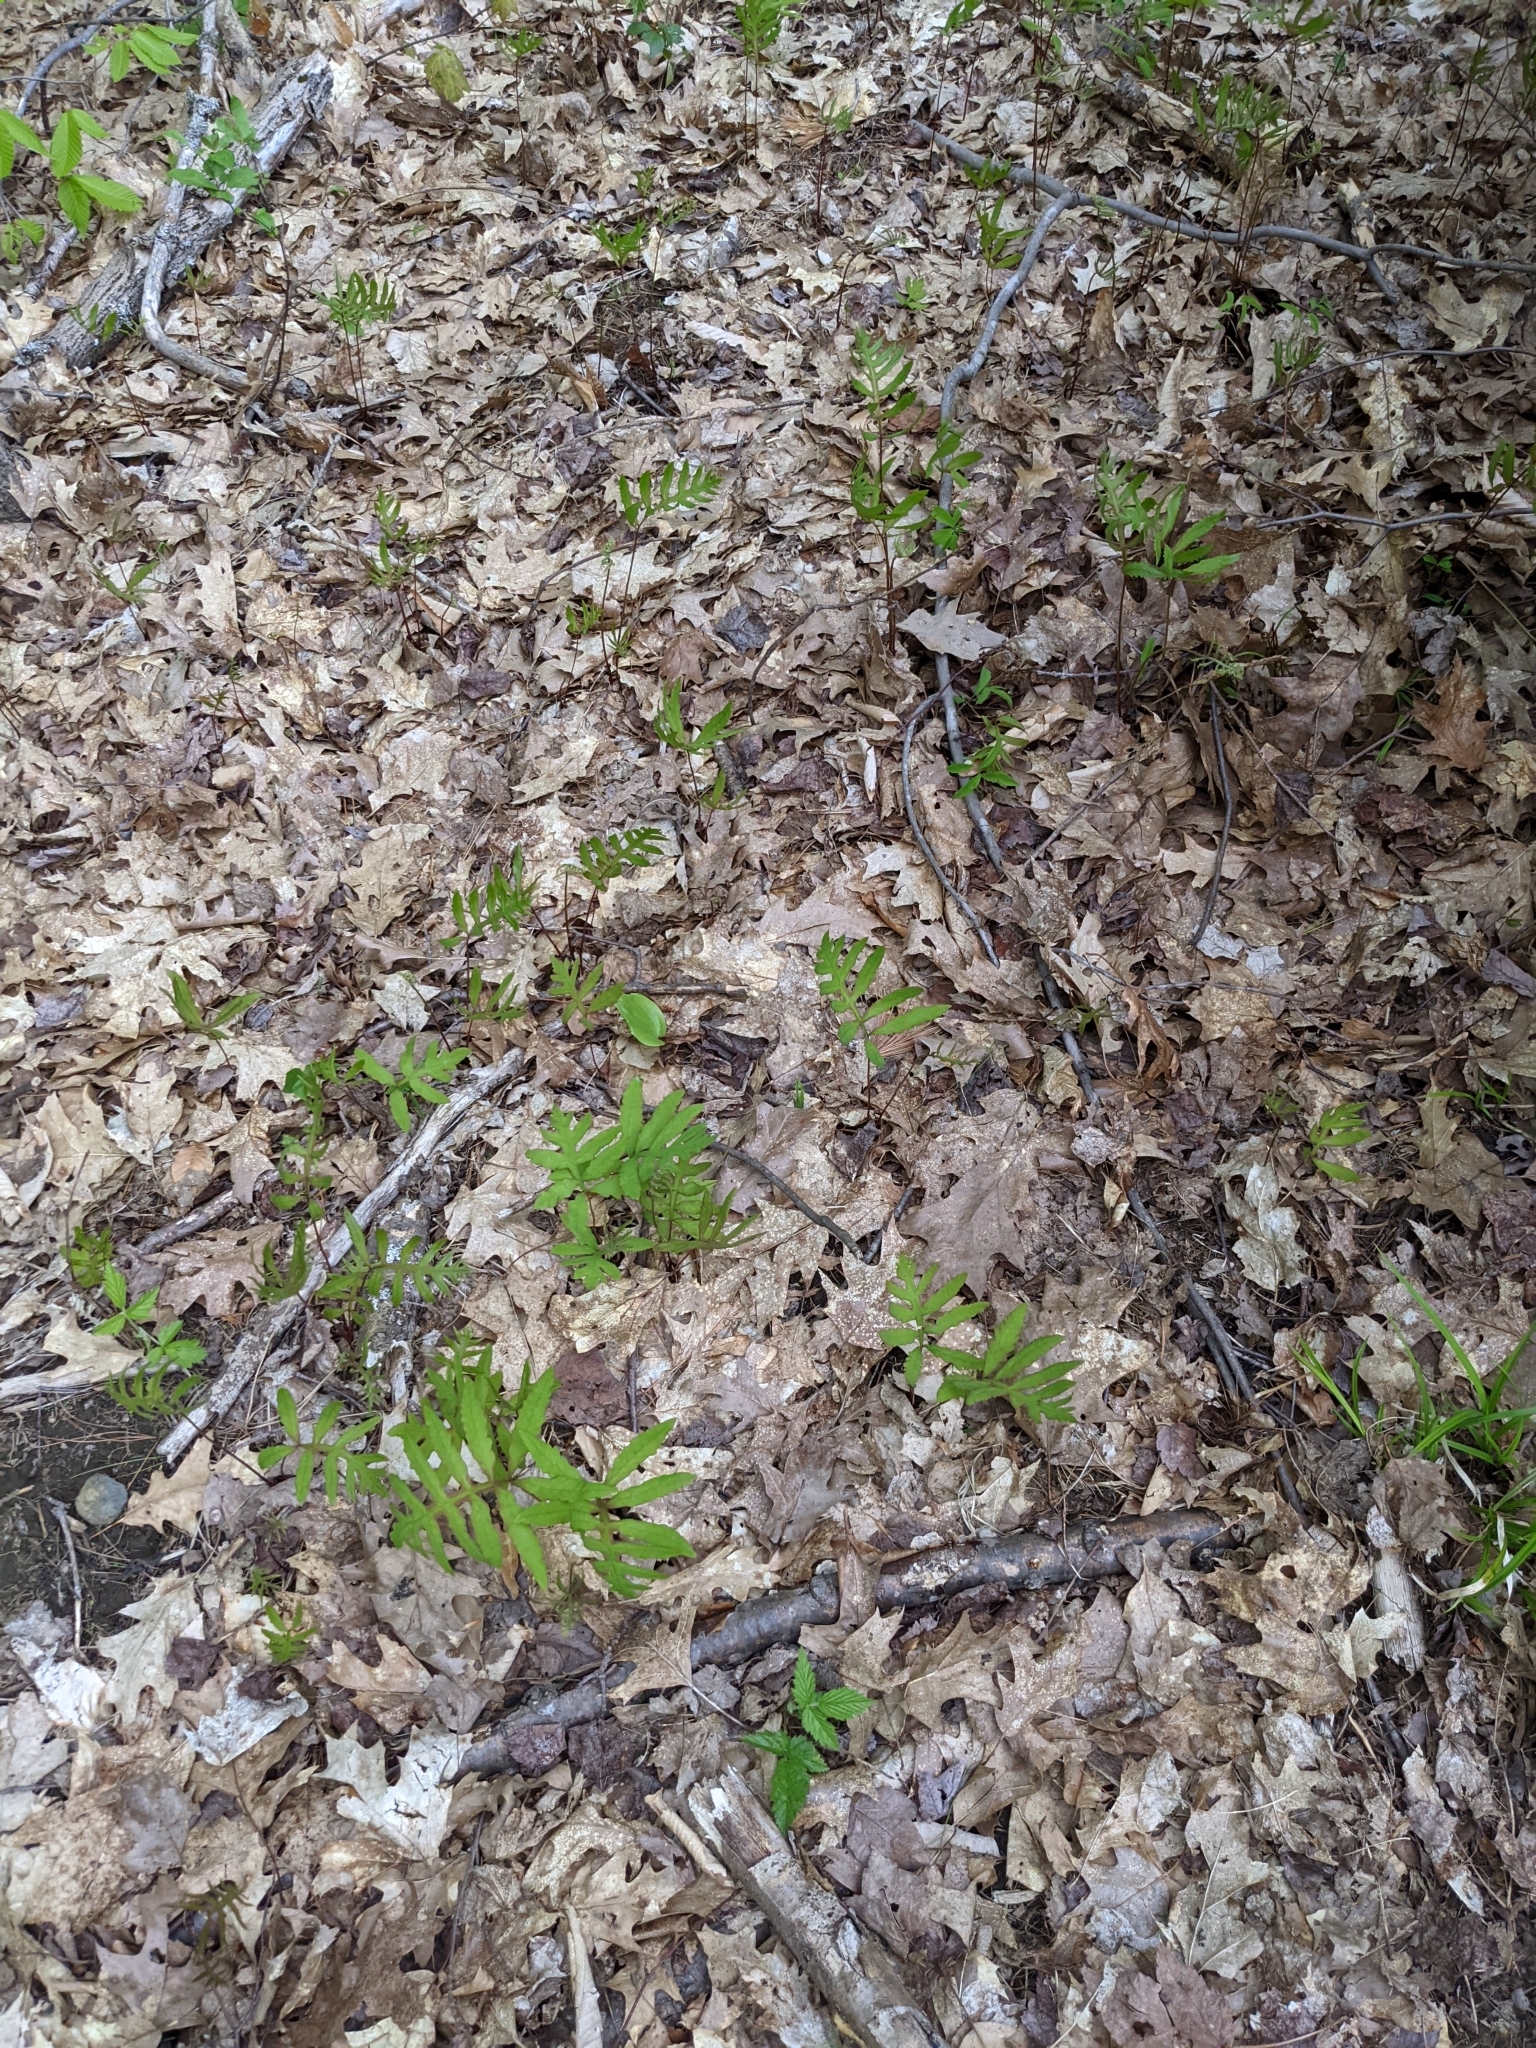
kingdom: Plantae
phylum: Tracheophyta
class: Polypodiopsida
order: Polypodiales
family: Onocleaceae
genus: Onoclea
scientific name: Onoclea sensibilis
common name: Sensitive fern
